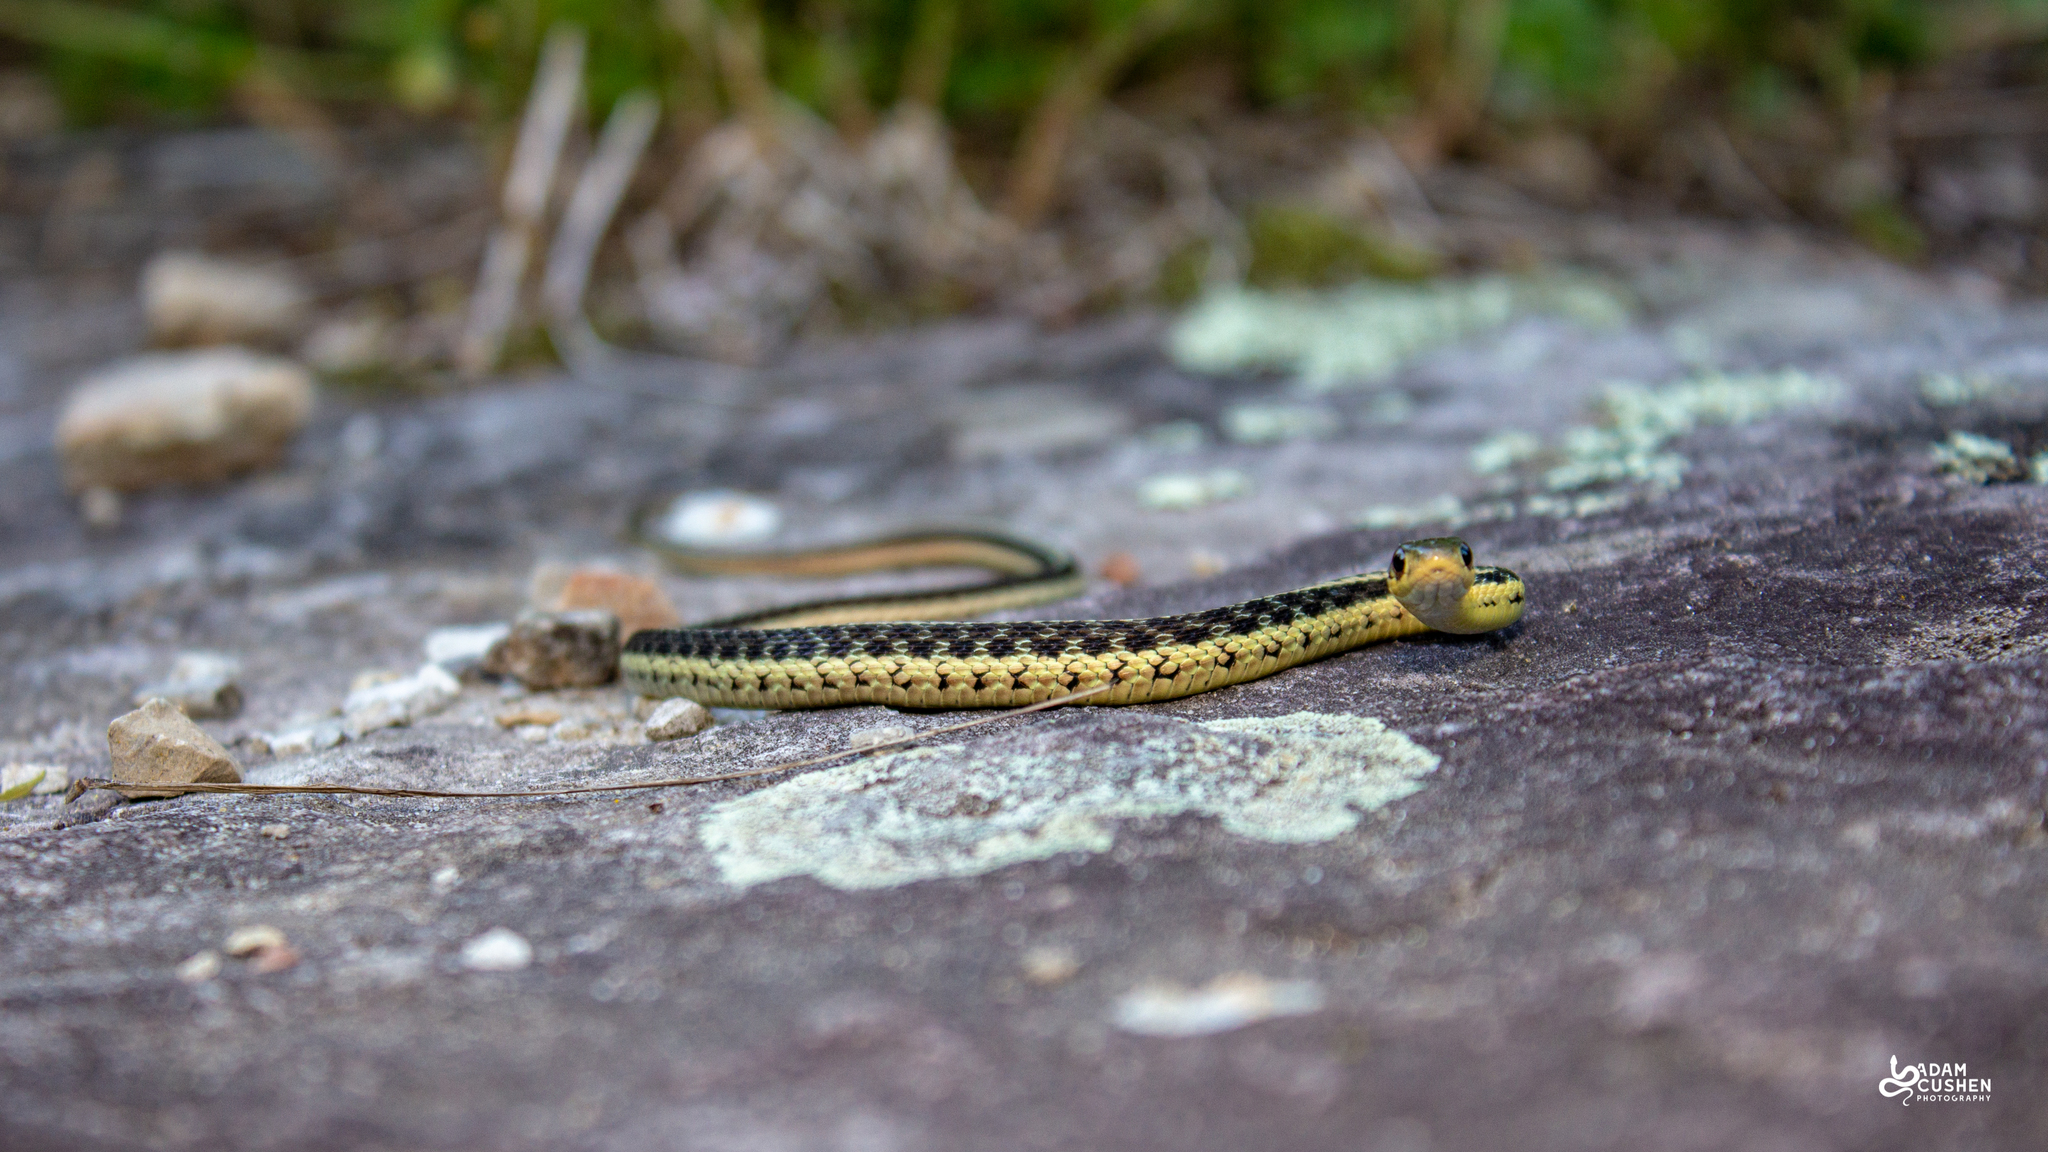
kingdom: Animalia
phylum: Chordata
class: Squamata
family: Colubridae
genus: Thamnophis
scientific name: Thamnophis sirtalis
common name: Common garter snake
